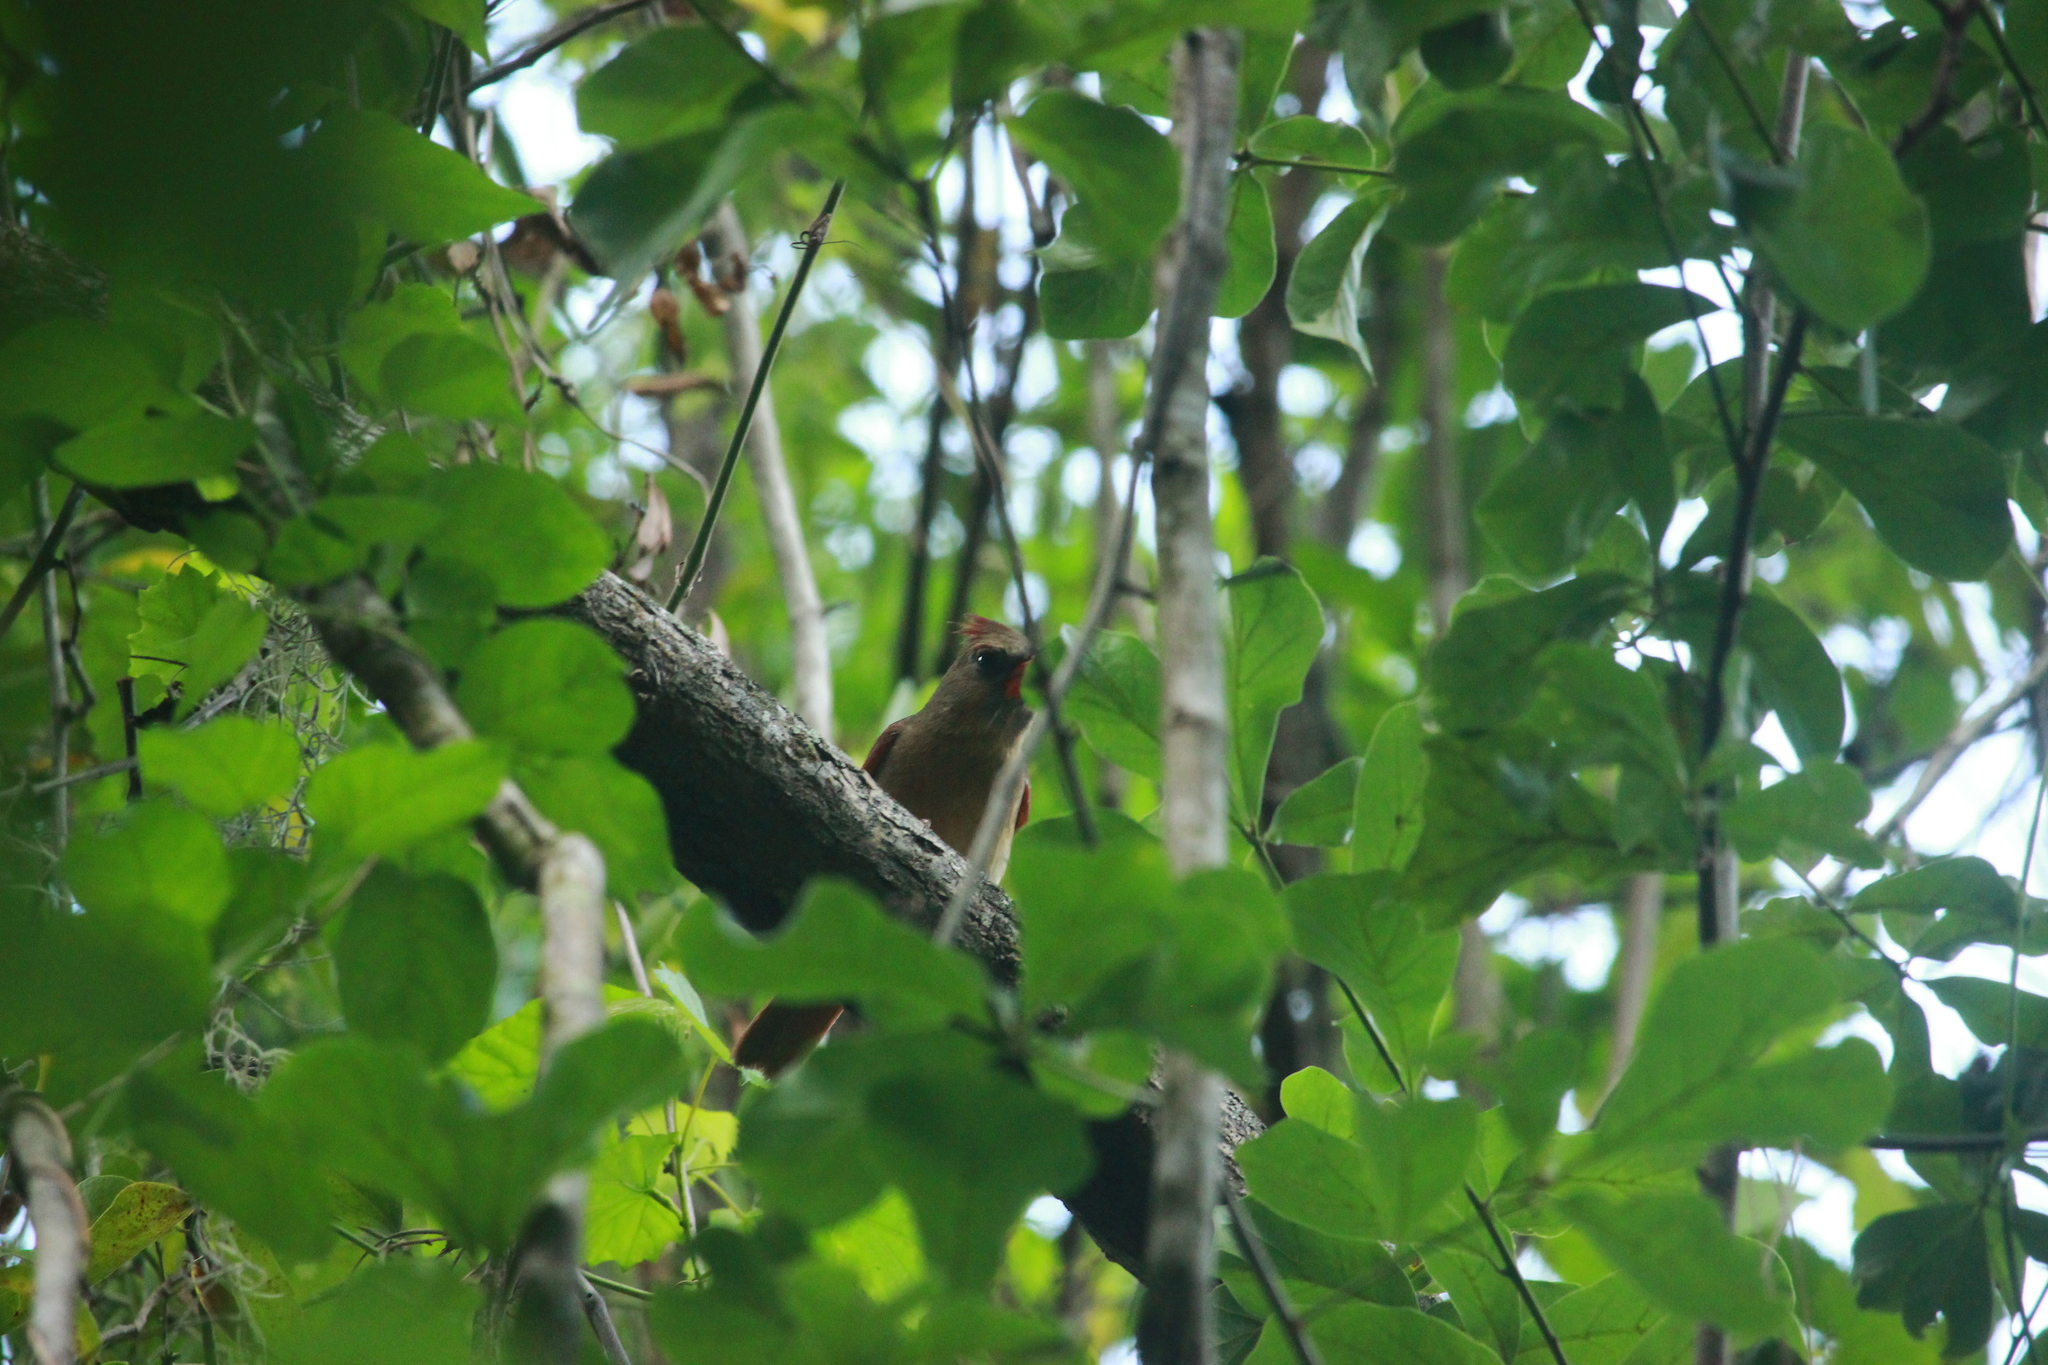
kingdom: Animalia
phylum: Chordata
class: Aves
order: Passeriformes
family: Cardinalidae
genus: Cardinalis
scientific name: Cardinalis cardinalis
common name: Northern cardinal
